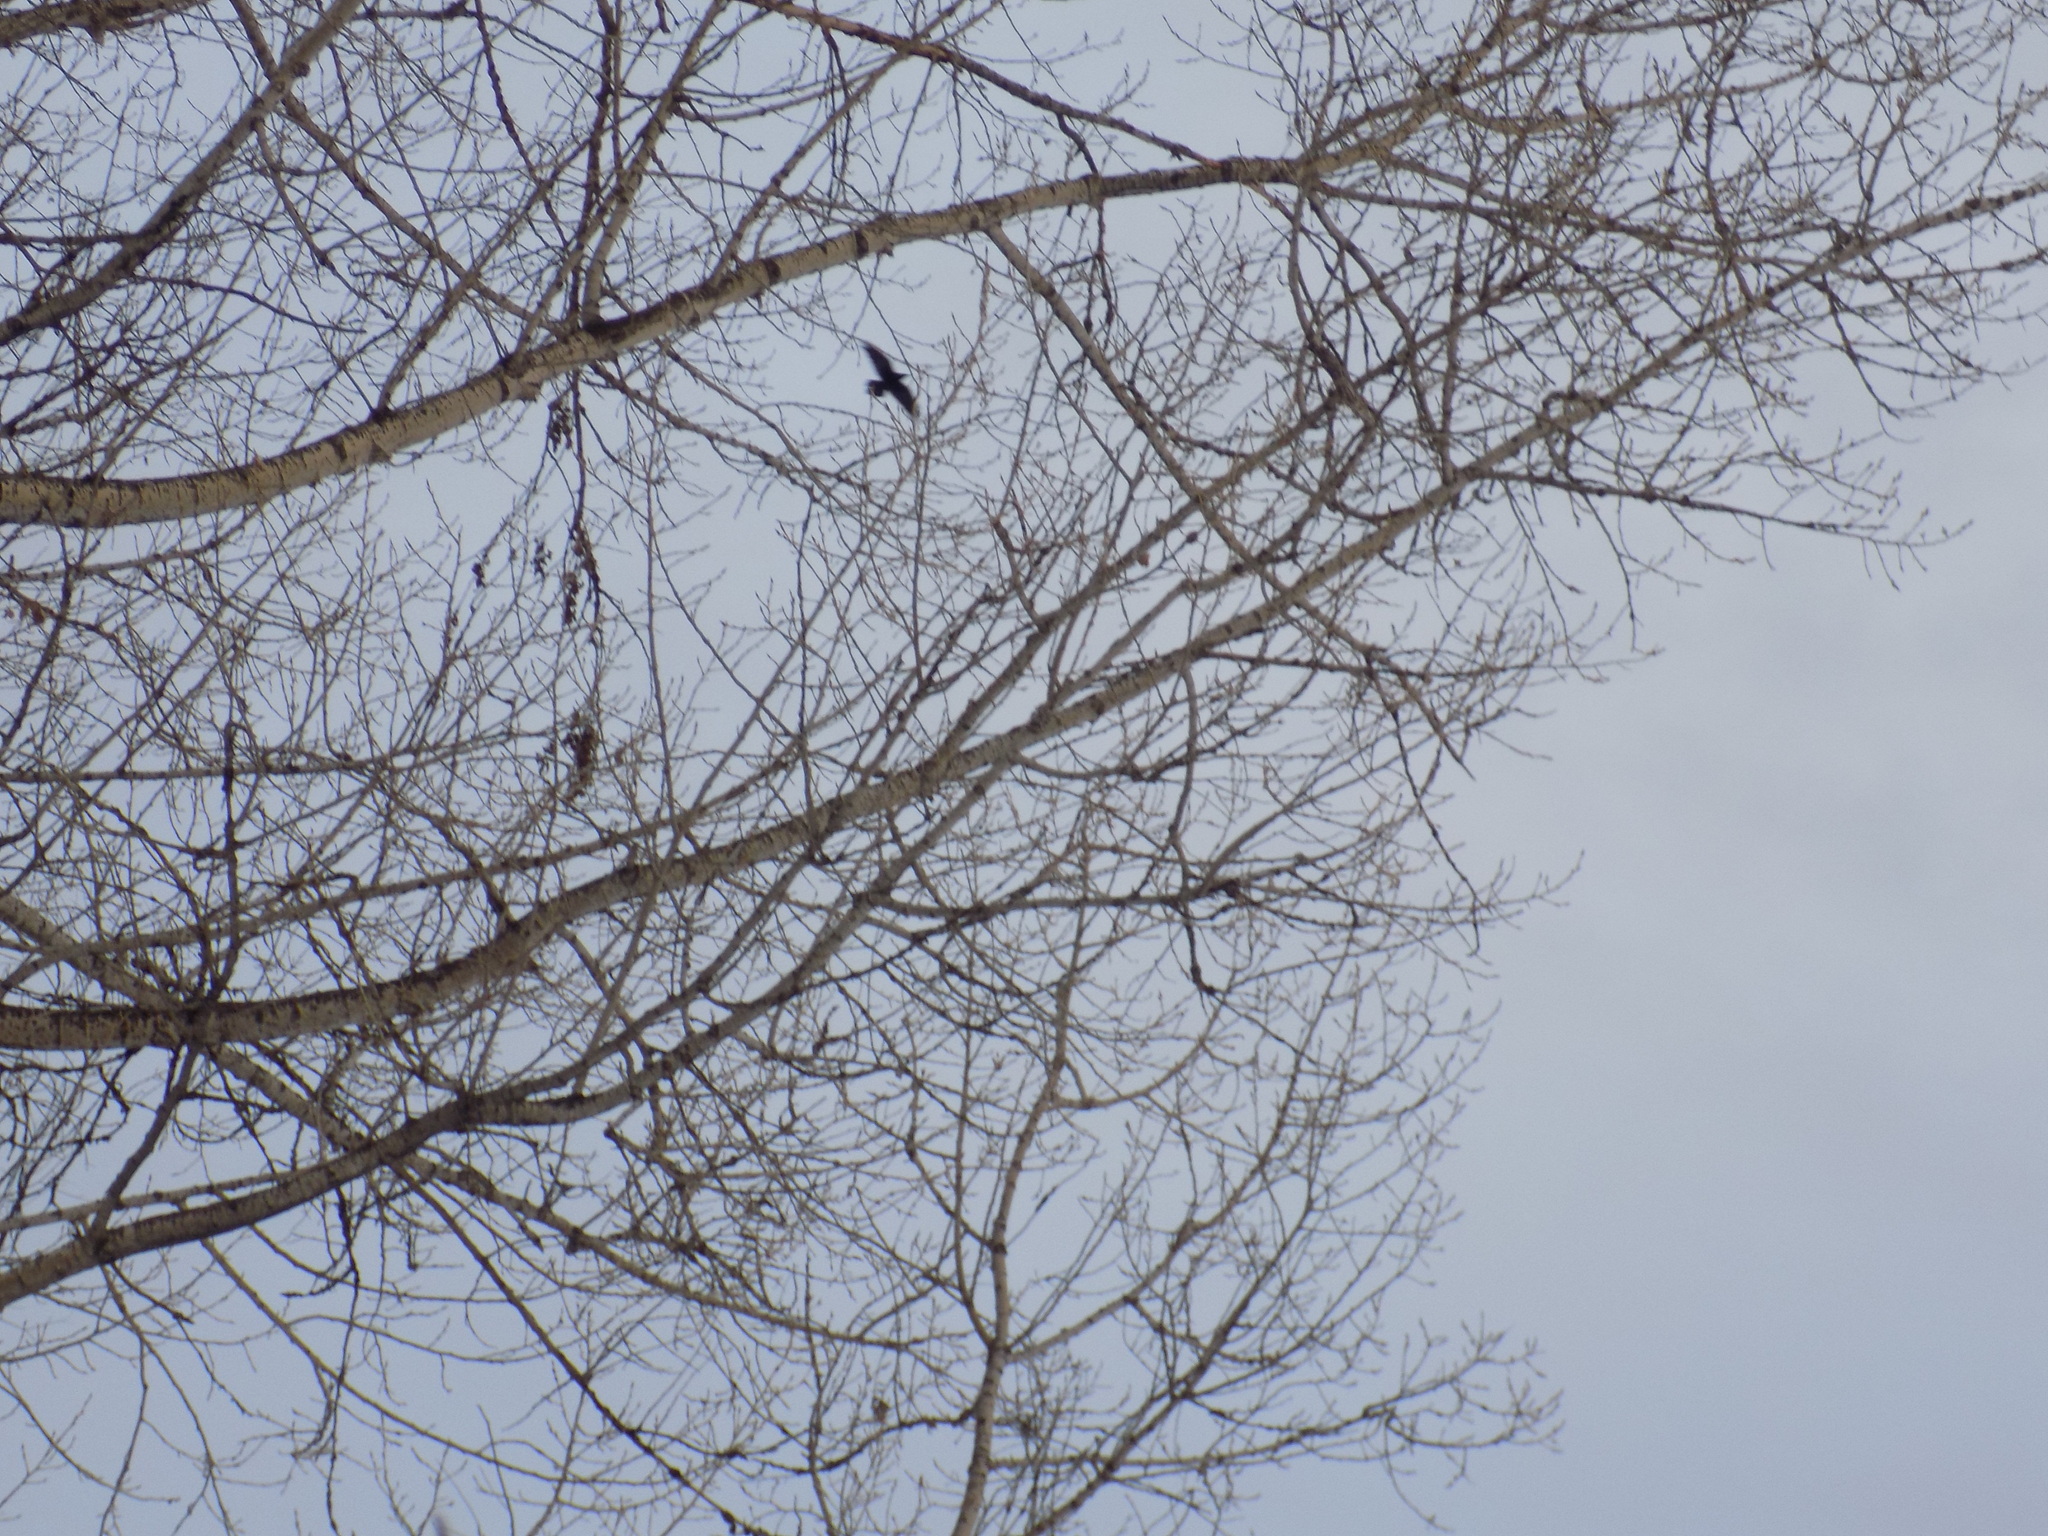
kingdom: Animalia
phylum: Chordata
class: Aves
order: Passeriformes
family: Corvidae
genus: Corvus
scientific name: Corvus corax
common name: Common raven
